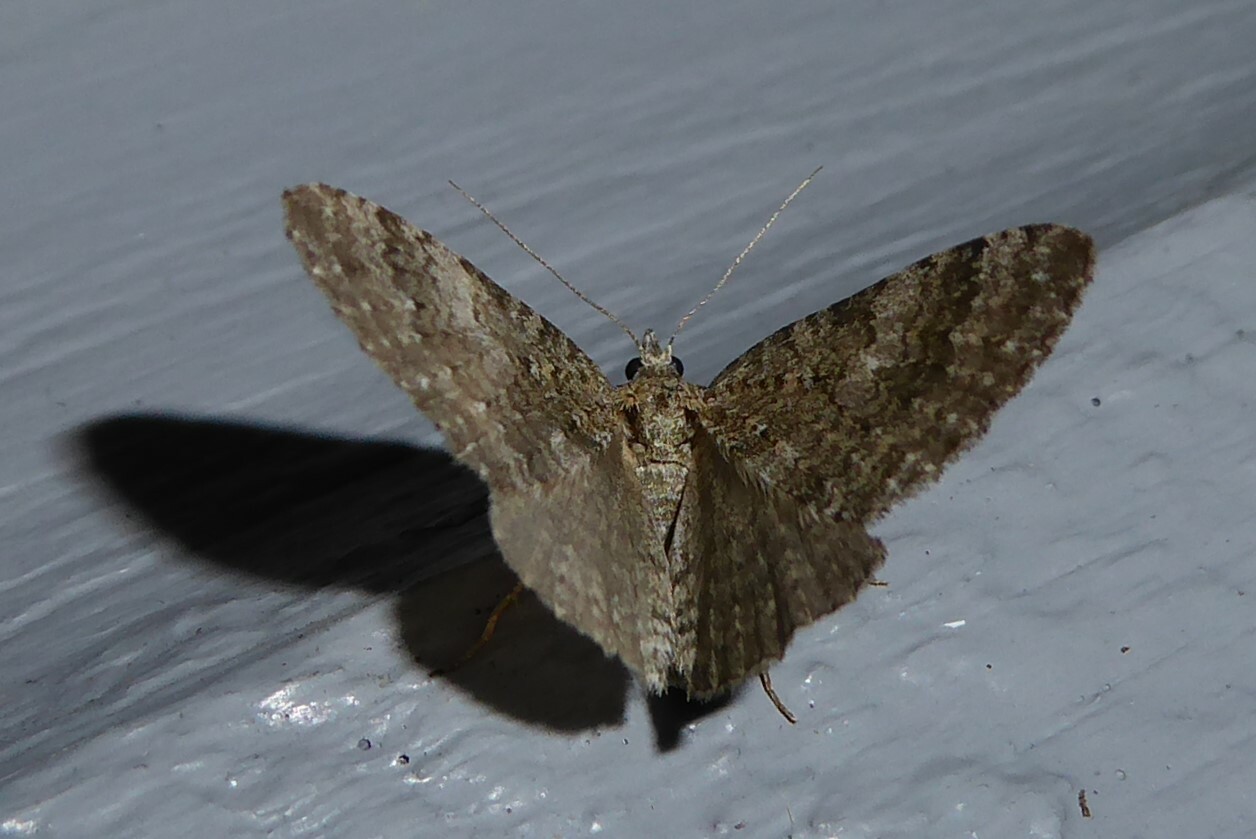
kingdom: Animalia
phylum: Arthropoda
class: Insecta
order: Lepidoptera
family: Geometridae
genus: Helastia
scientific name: Helastia corcularia
